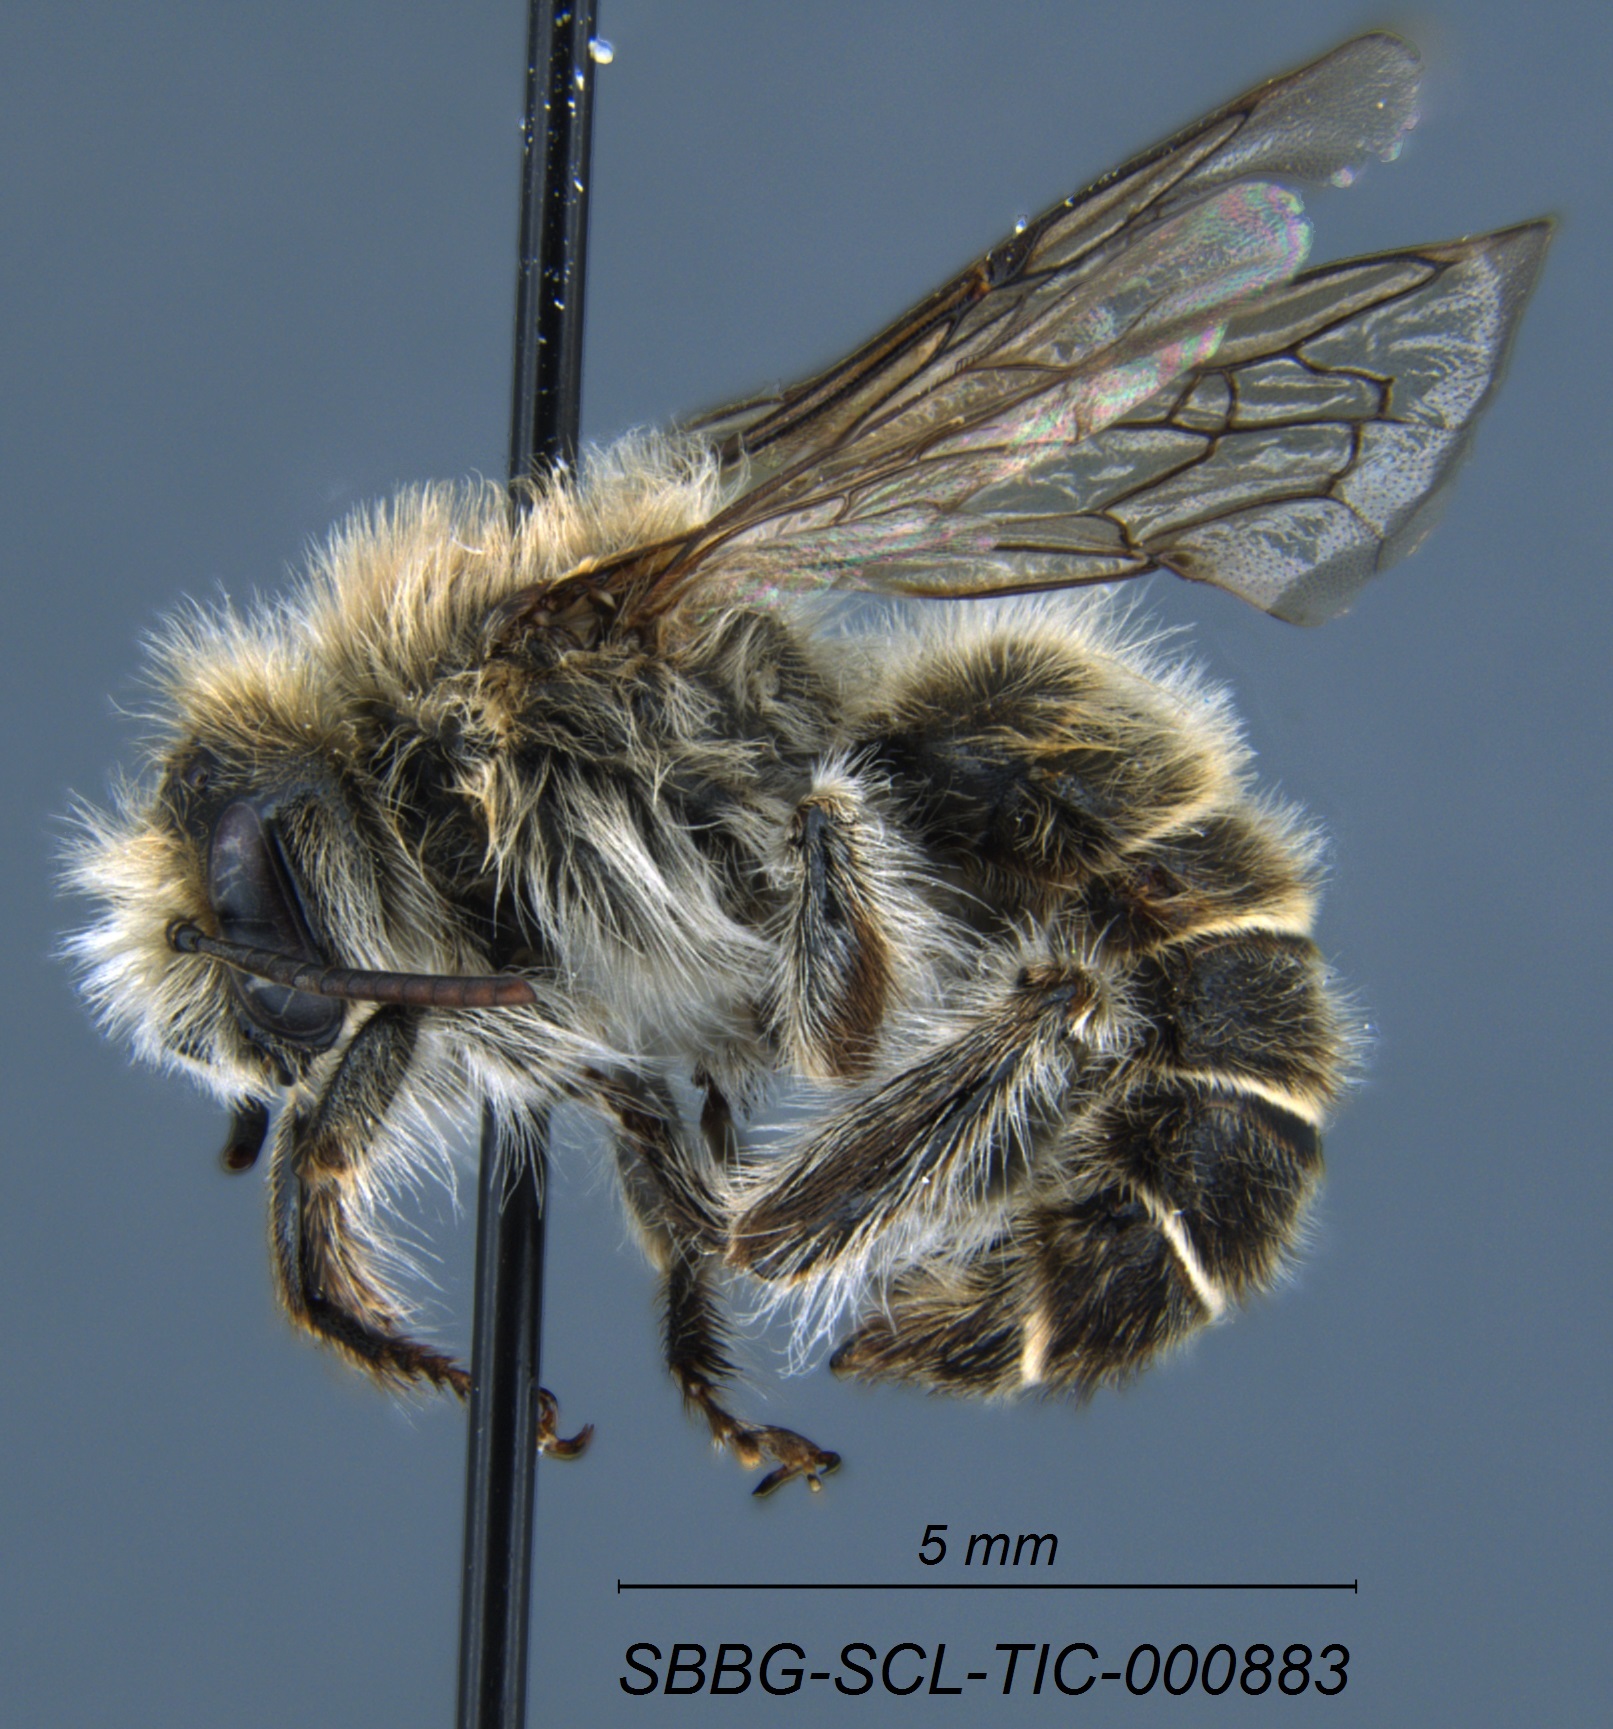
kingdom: Animalia
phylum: Arthropoda
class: Insecta
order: Hymenoptera
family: Apidae
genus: Diadasia
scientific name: Diadasia bituberculata
